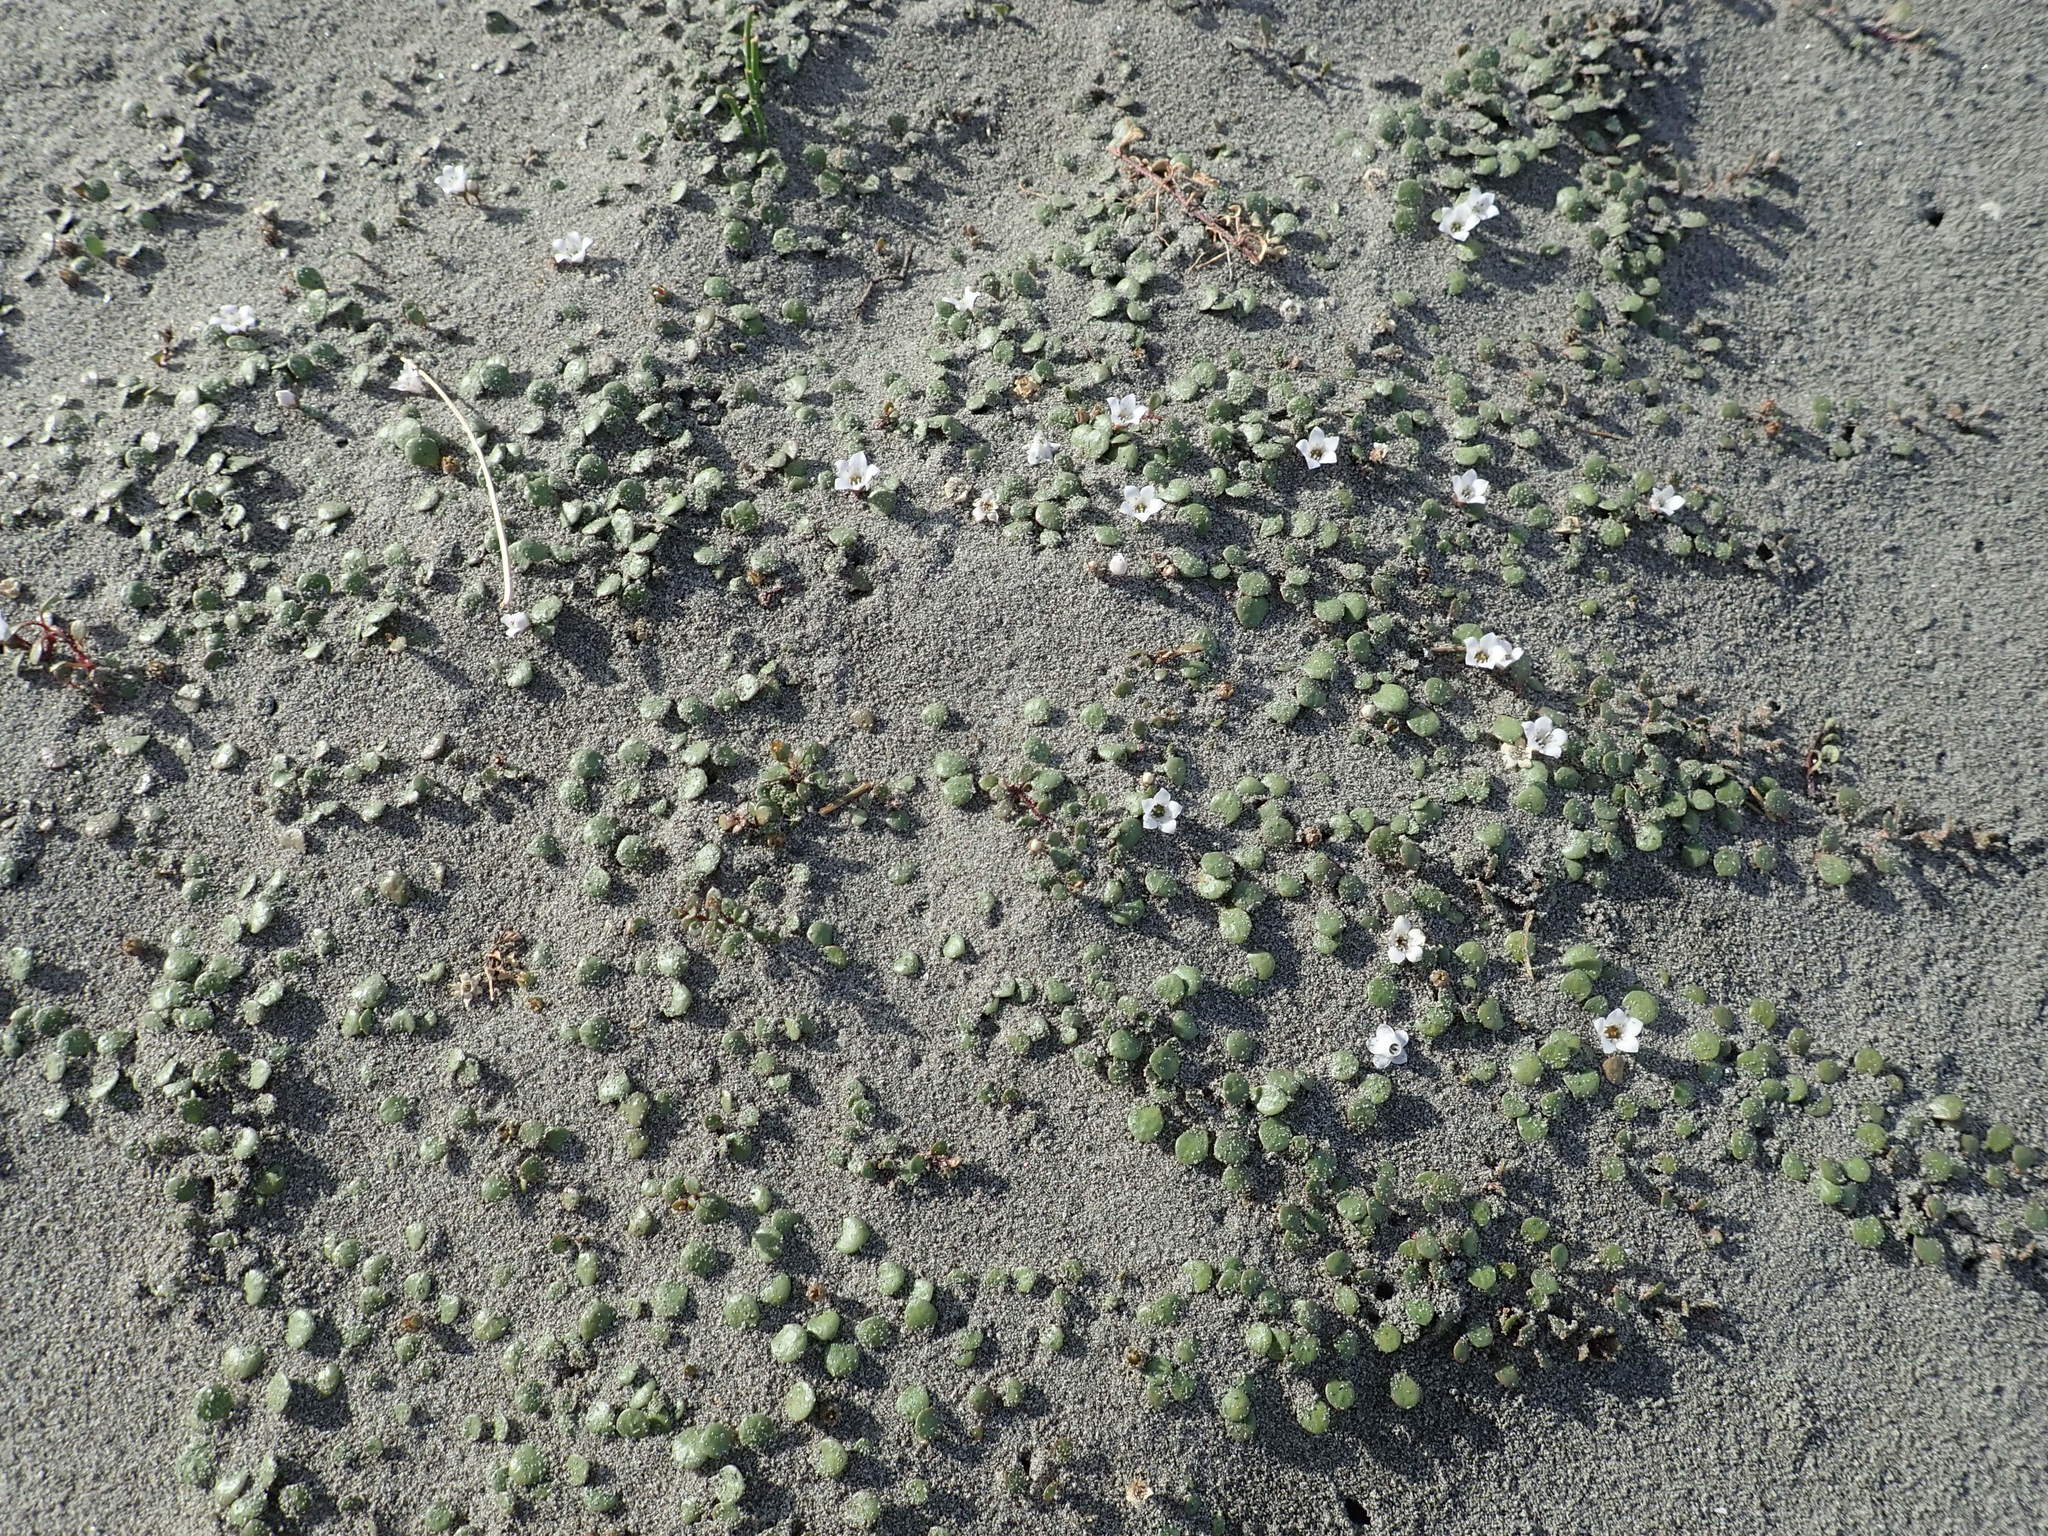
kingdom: Plantae
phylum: Tracheophyta
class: Magnoliopsida
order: Ericales
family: Primulaceae
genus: Samolus
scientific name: Samolus repens
